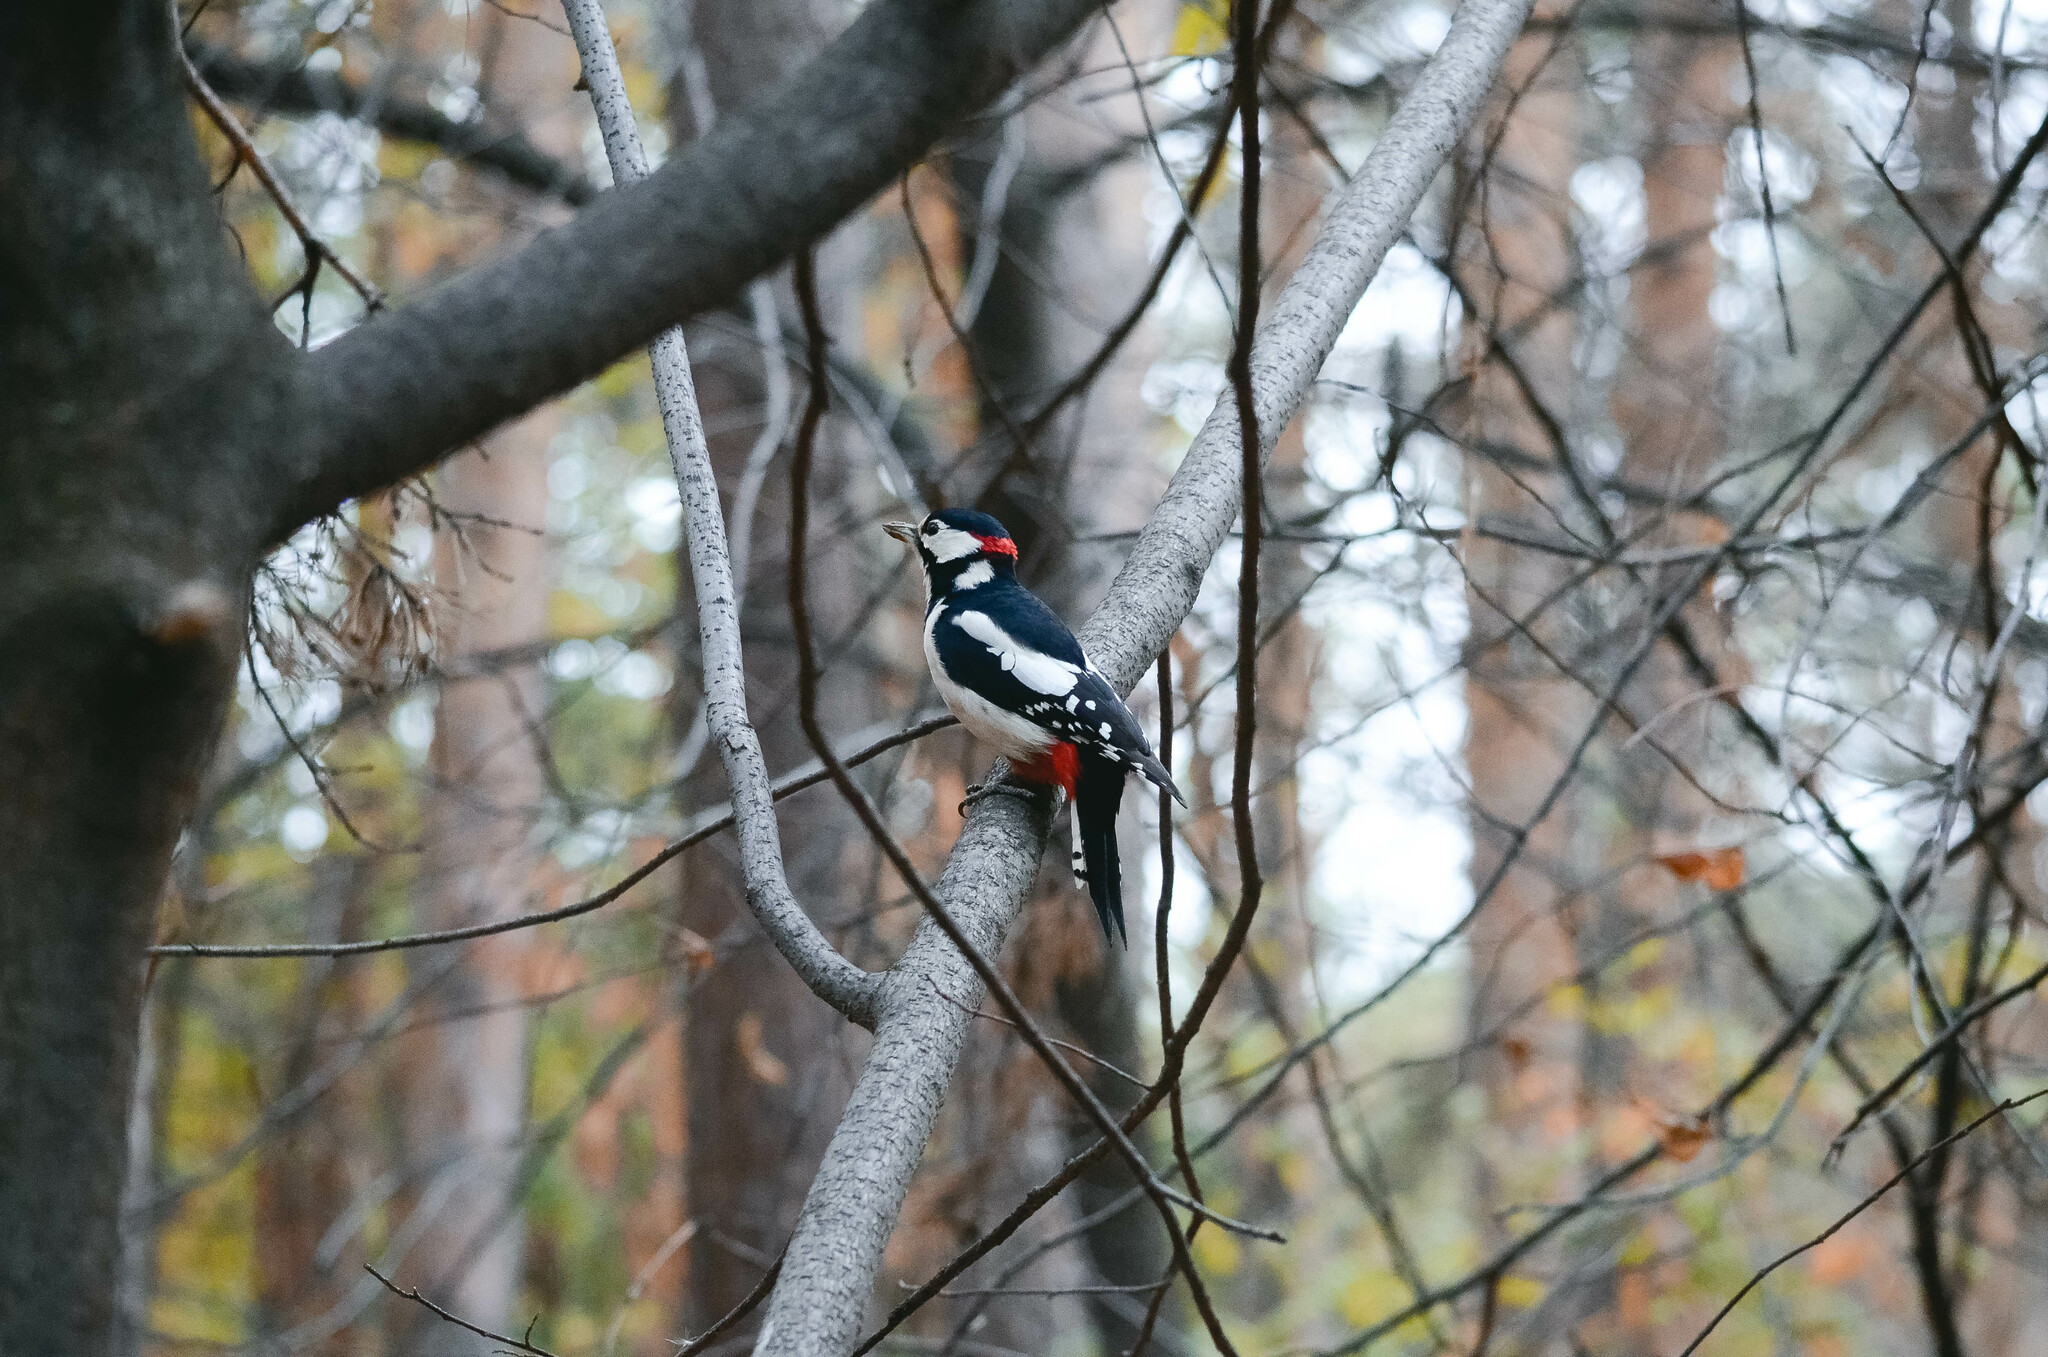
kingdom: Animalia
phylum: Chordata
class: Aves
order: Piciformes
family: Picidae
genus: Dendrocopos
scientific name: Dendrocopos major
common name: Great spotted woodpecker
